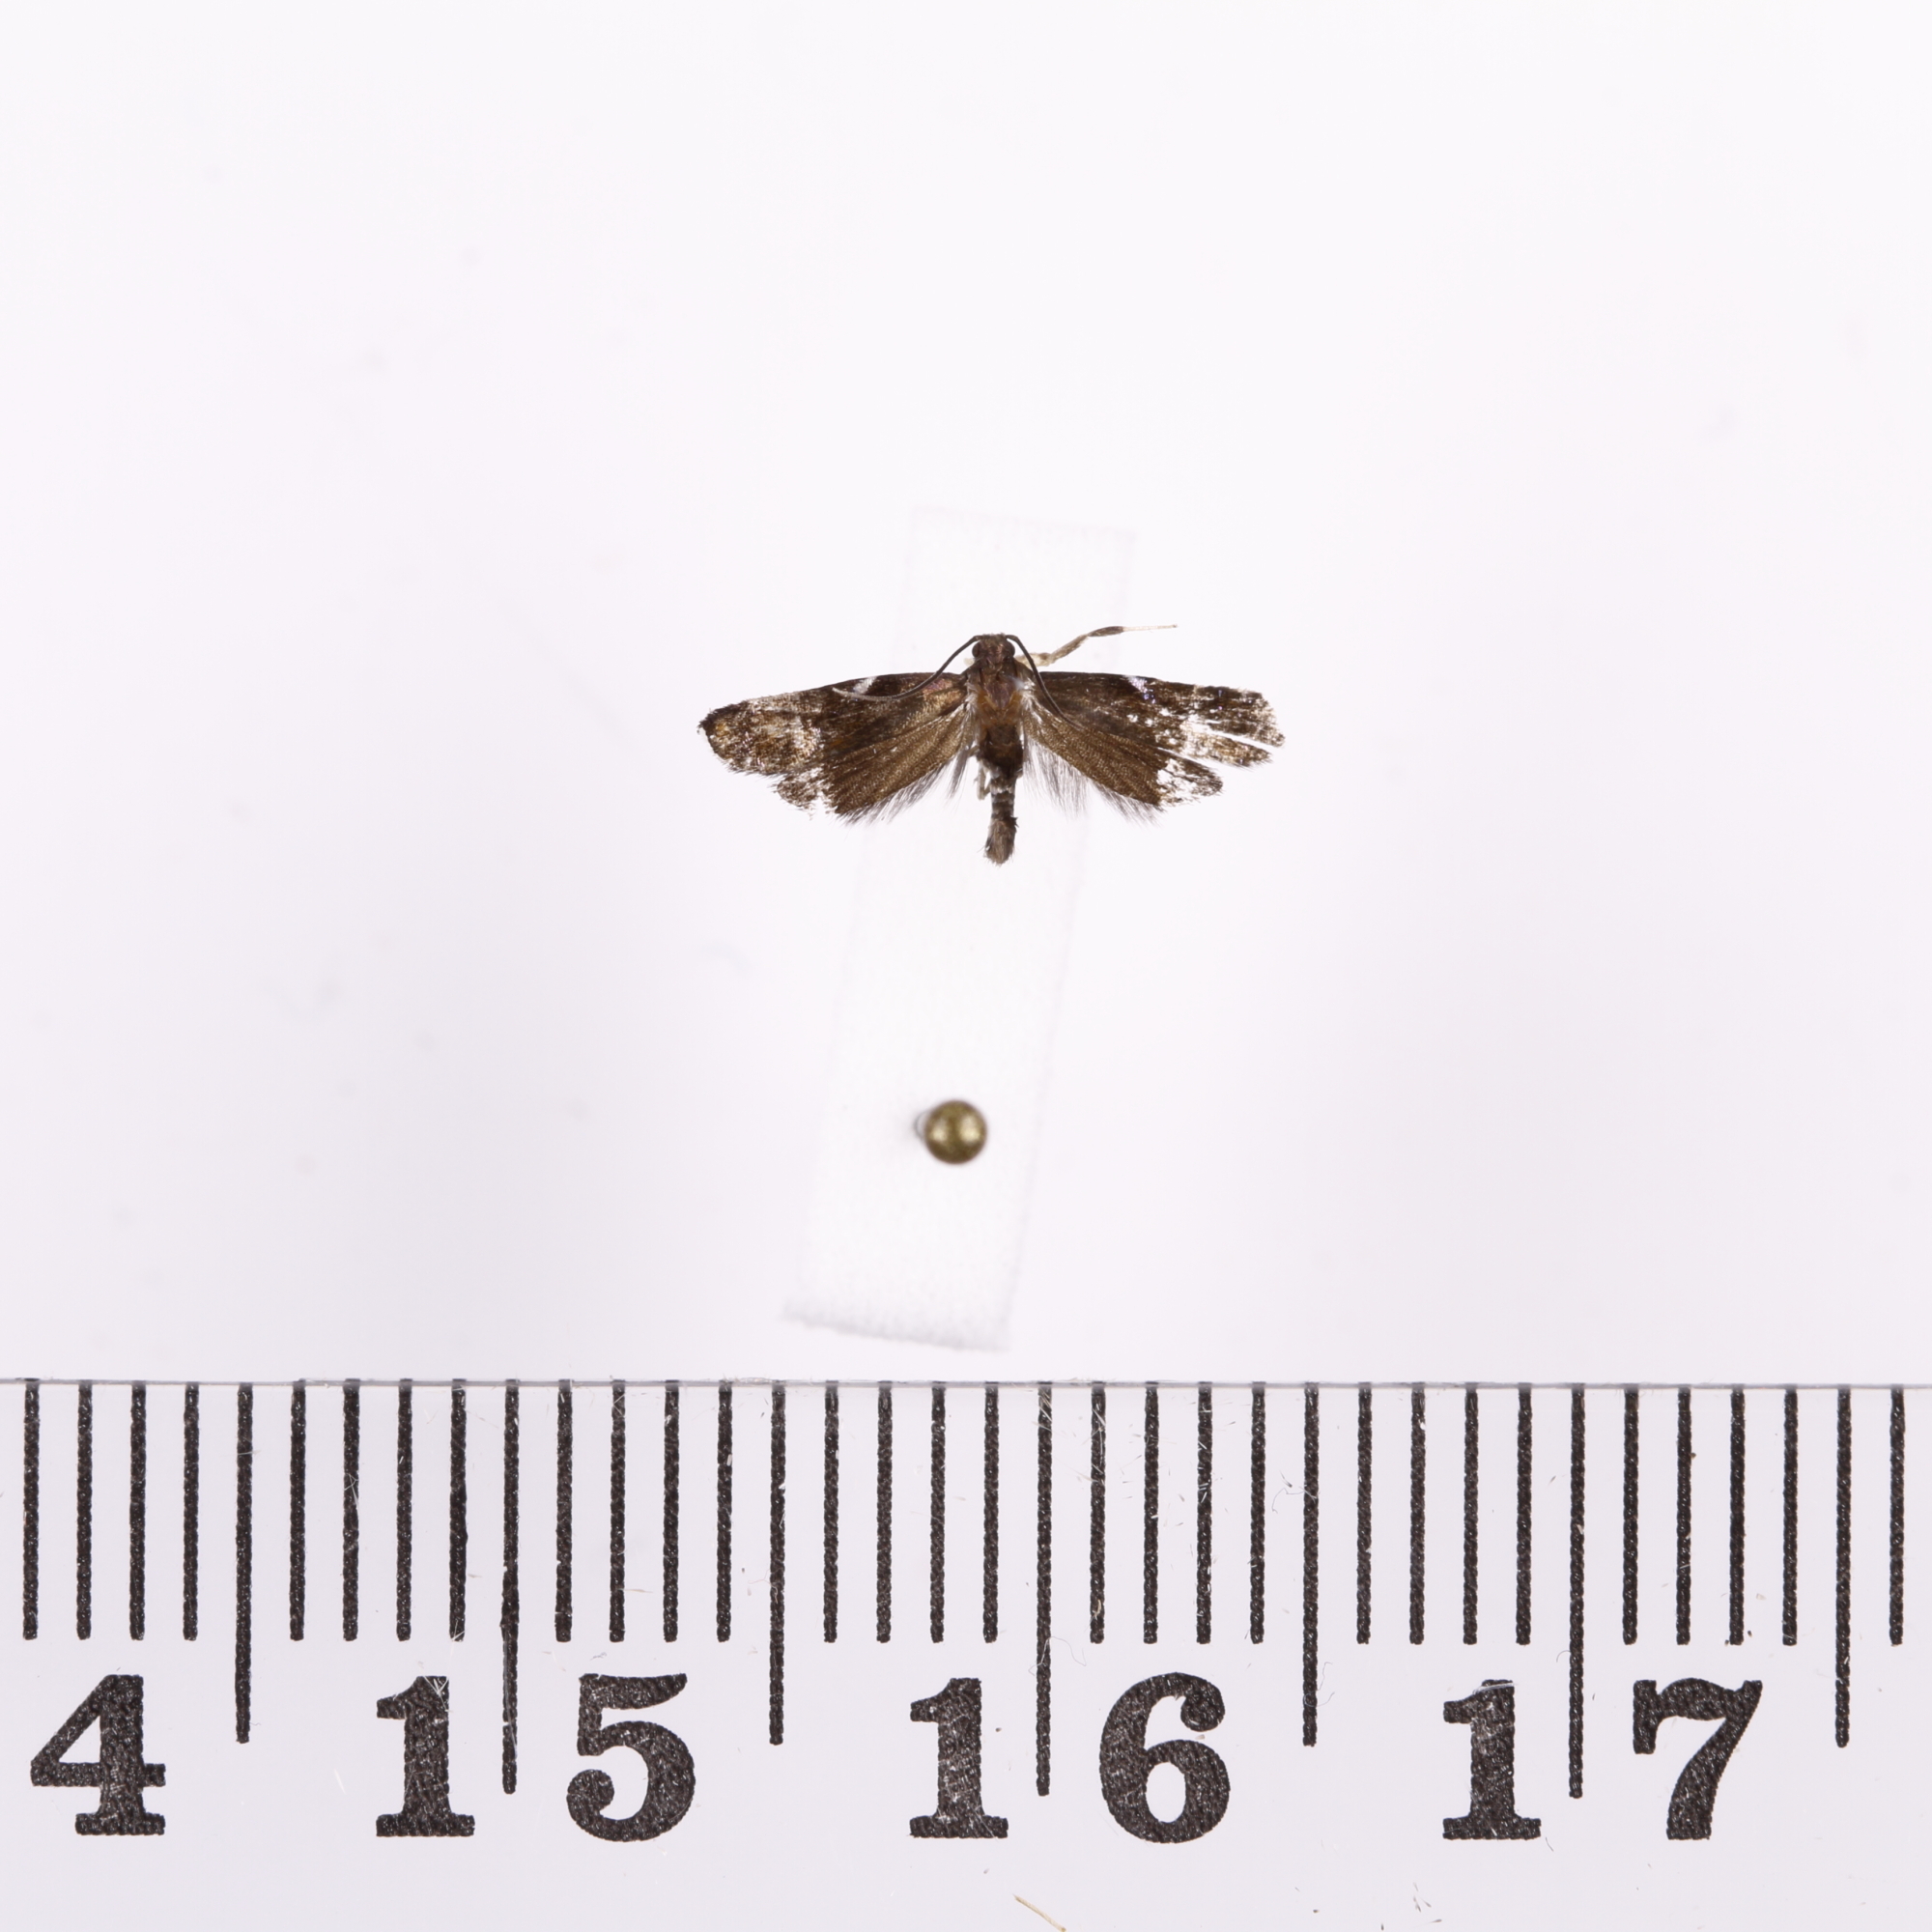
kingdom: Animalia
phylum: Arthropoda
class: Insecta
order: Lepidoptera
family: Depressariidae
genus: Compsistis
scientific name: Compsistis bifaciella
